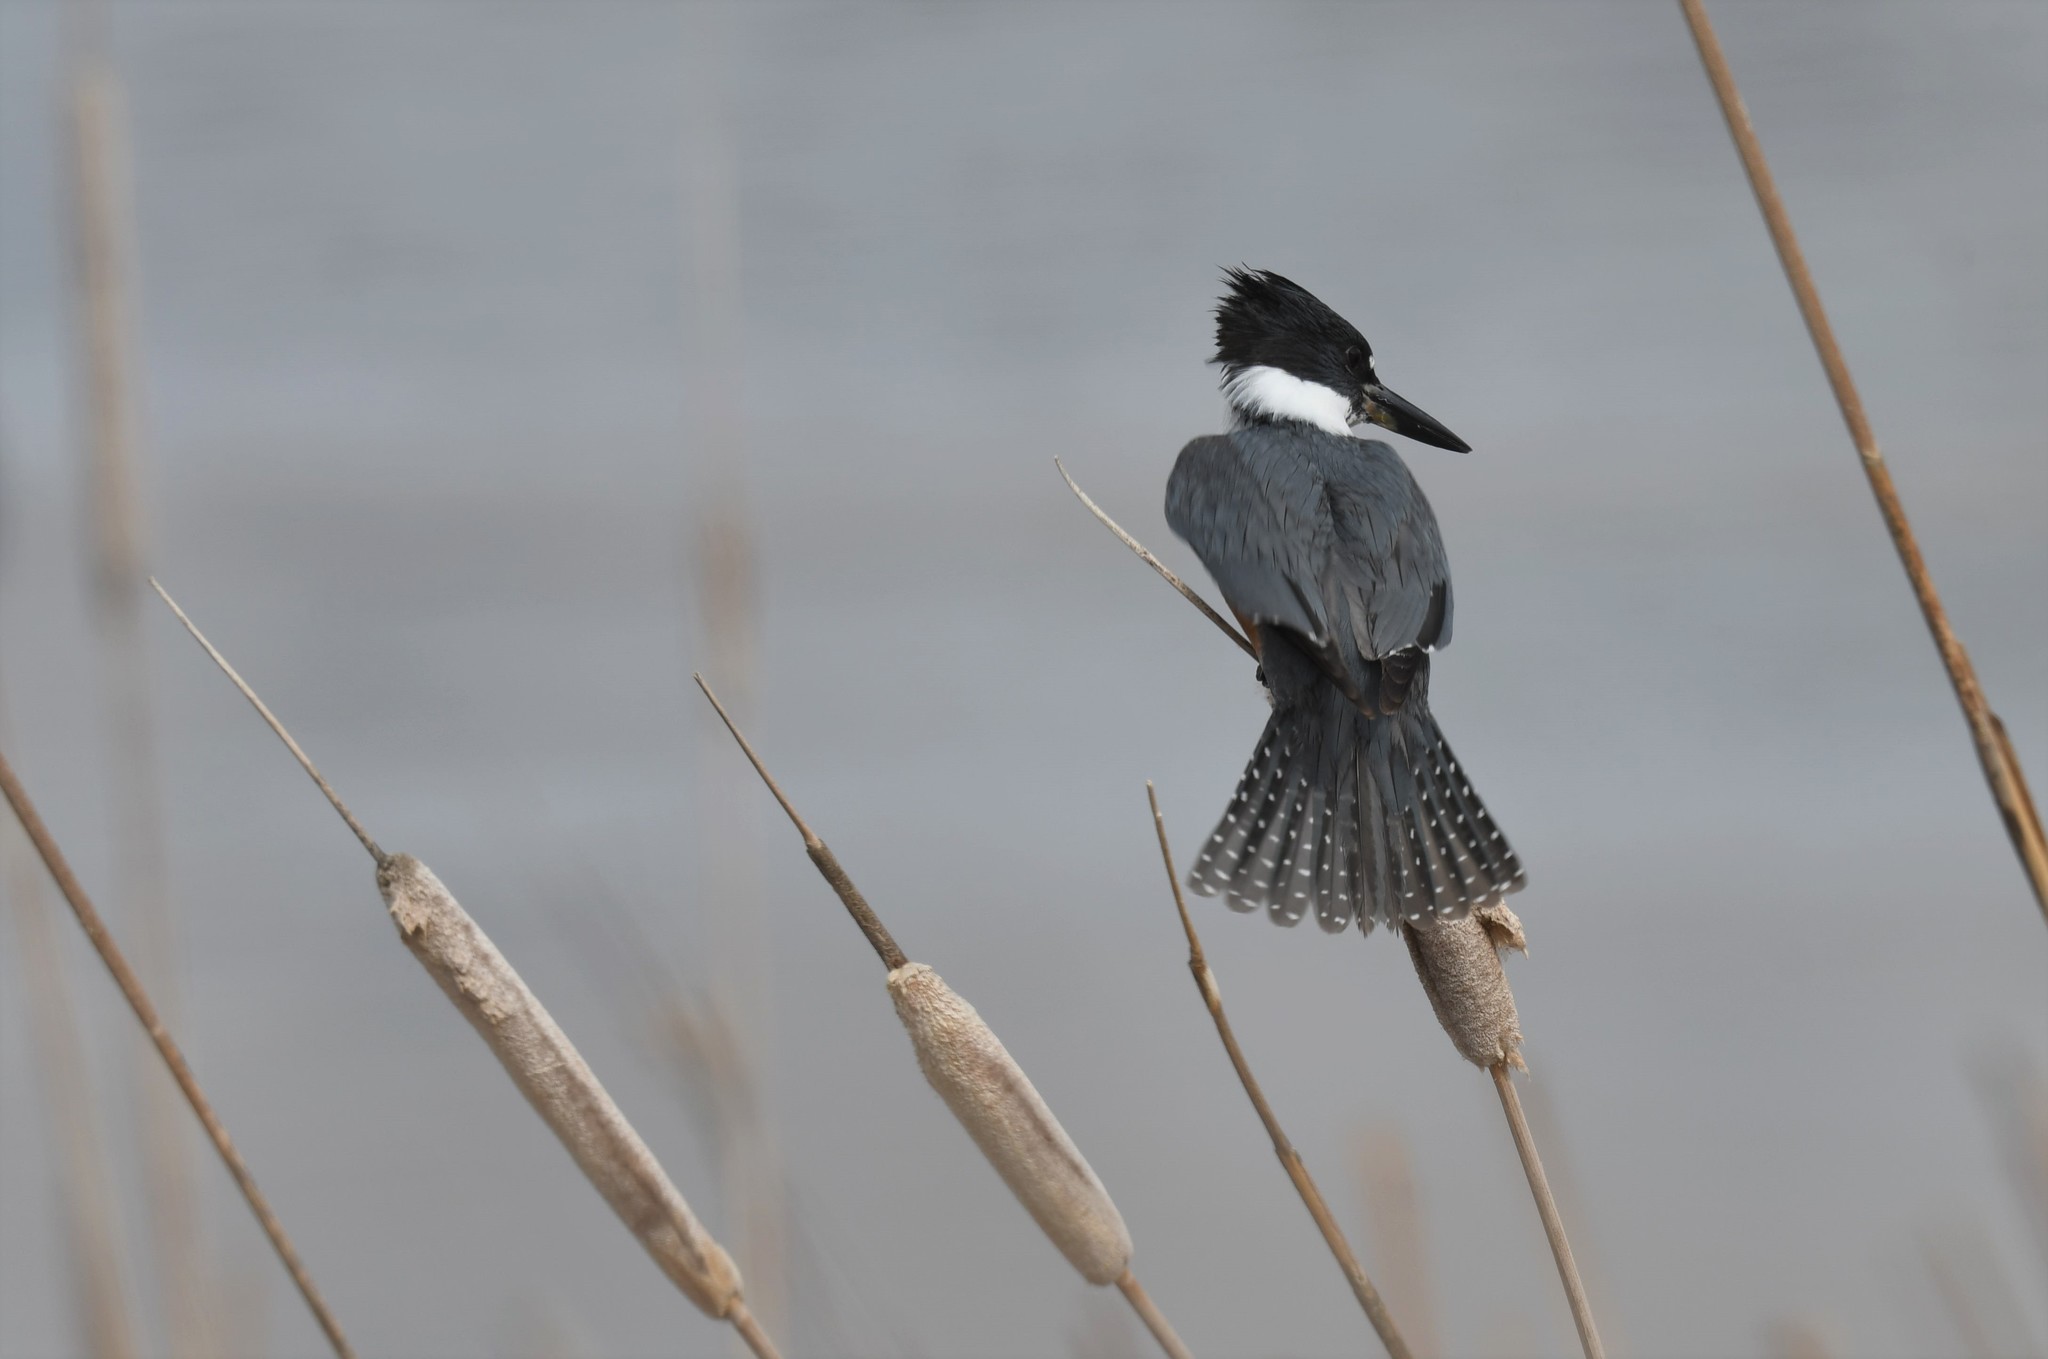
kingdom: Animalia
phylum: Chordata
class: Aves
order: Coraciiformes
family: Alcedinidae
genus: Megaceryle
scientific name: Megaceryle alcyon
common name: Belted kingfisher
